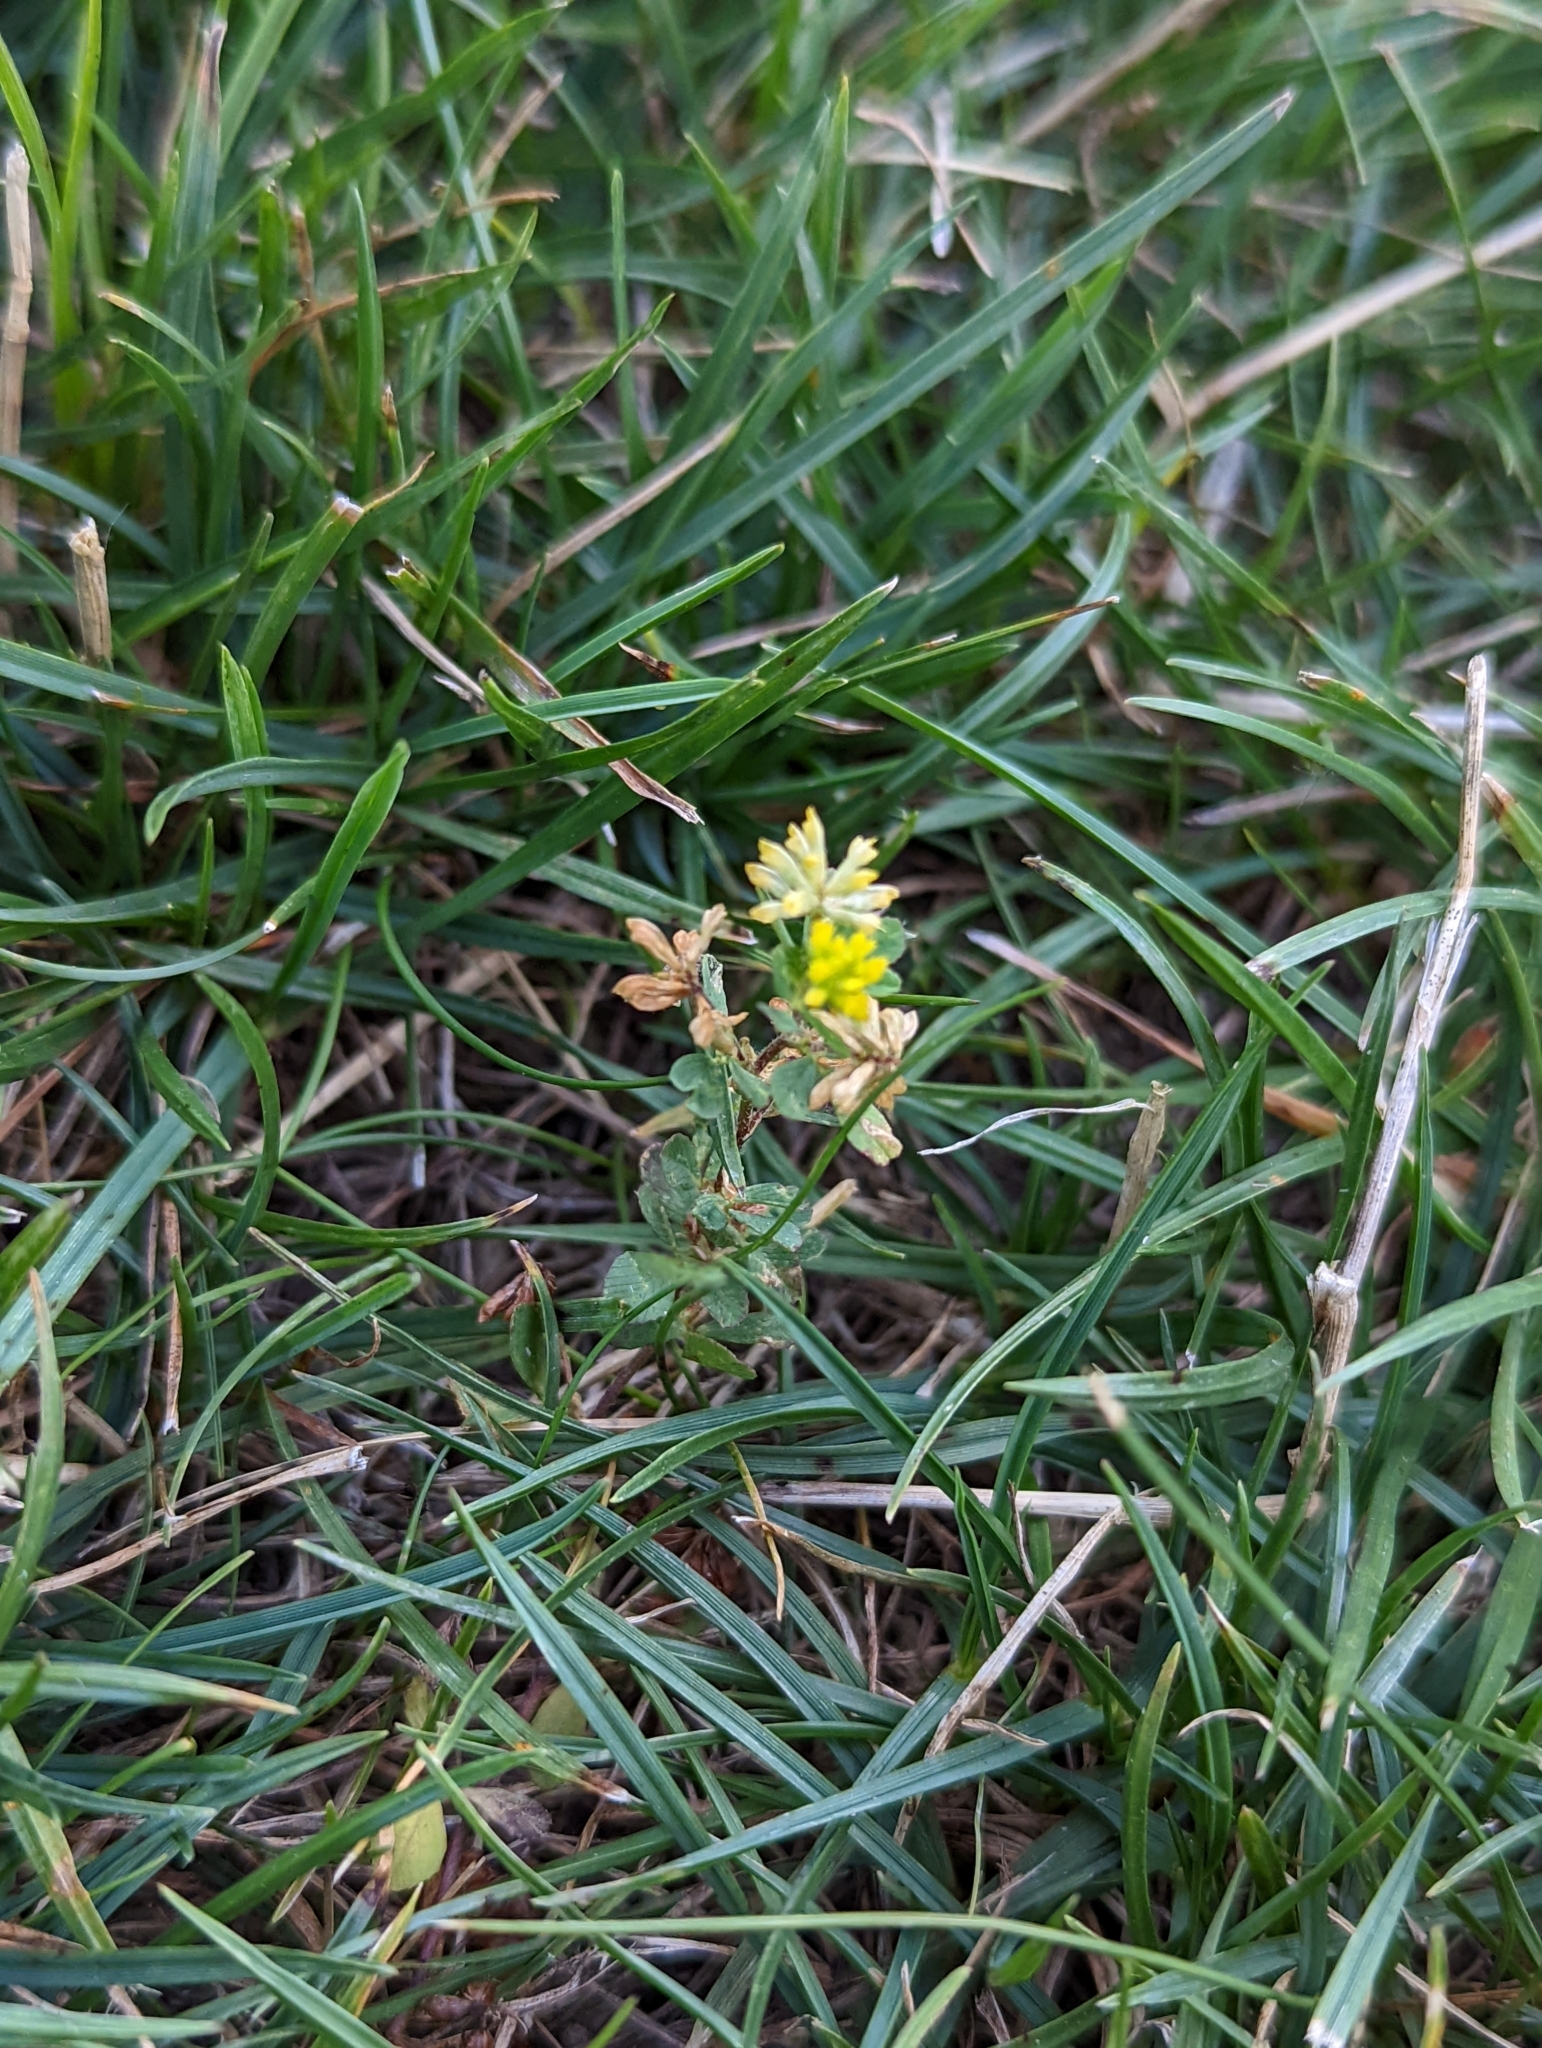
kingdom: Plantae
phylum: Tracheophyta
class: Magnoliopsida
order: Fabales
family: Fabaceae
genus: Trifolium
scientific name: Trifolium dubium
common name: Suckling clover
